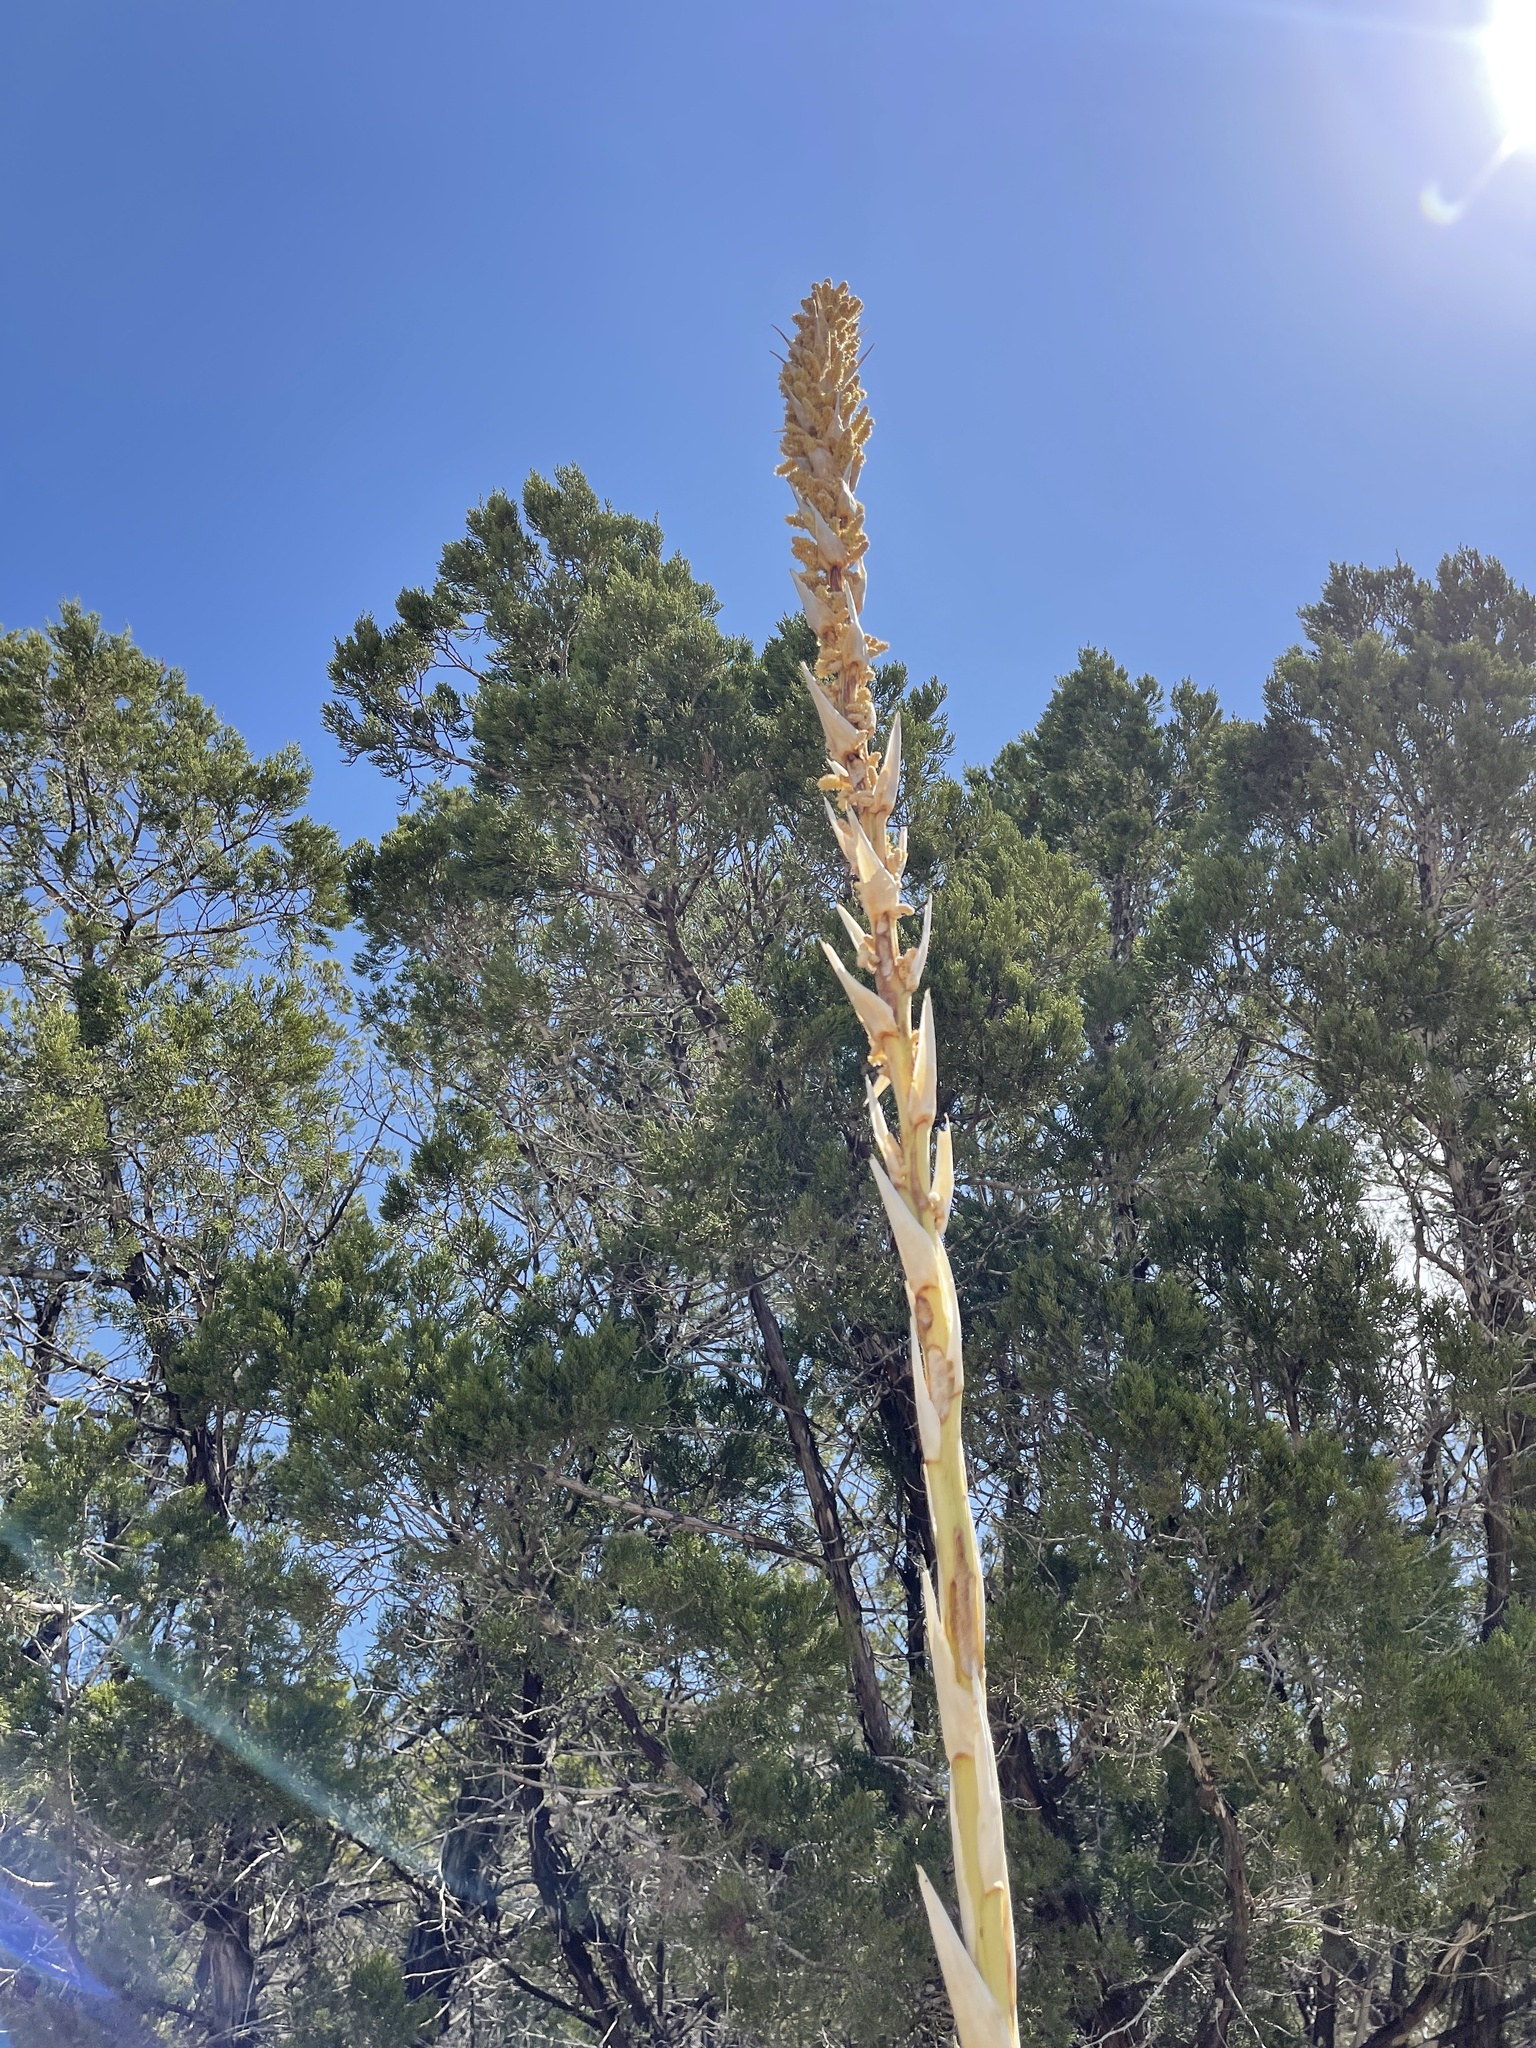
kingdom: Plantae
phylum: Tracheophyta
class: Liliopsida
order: Asparagales
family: Asparagaceae
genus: Dasylirion
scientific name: Dasylirion texanum
